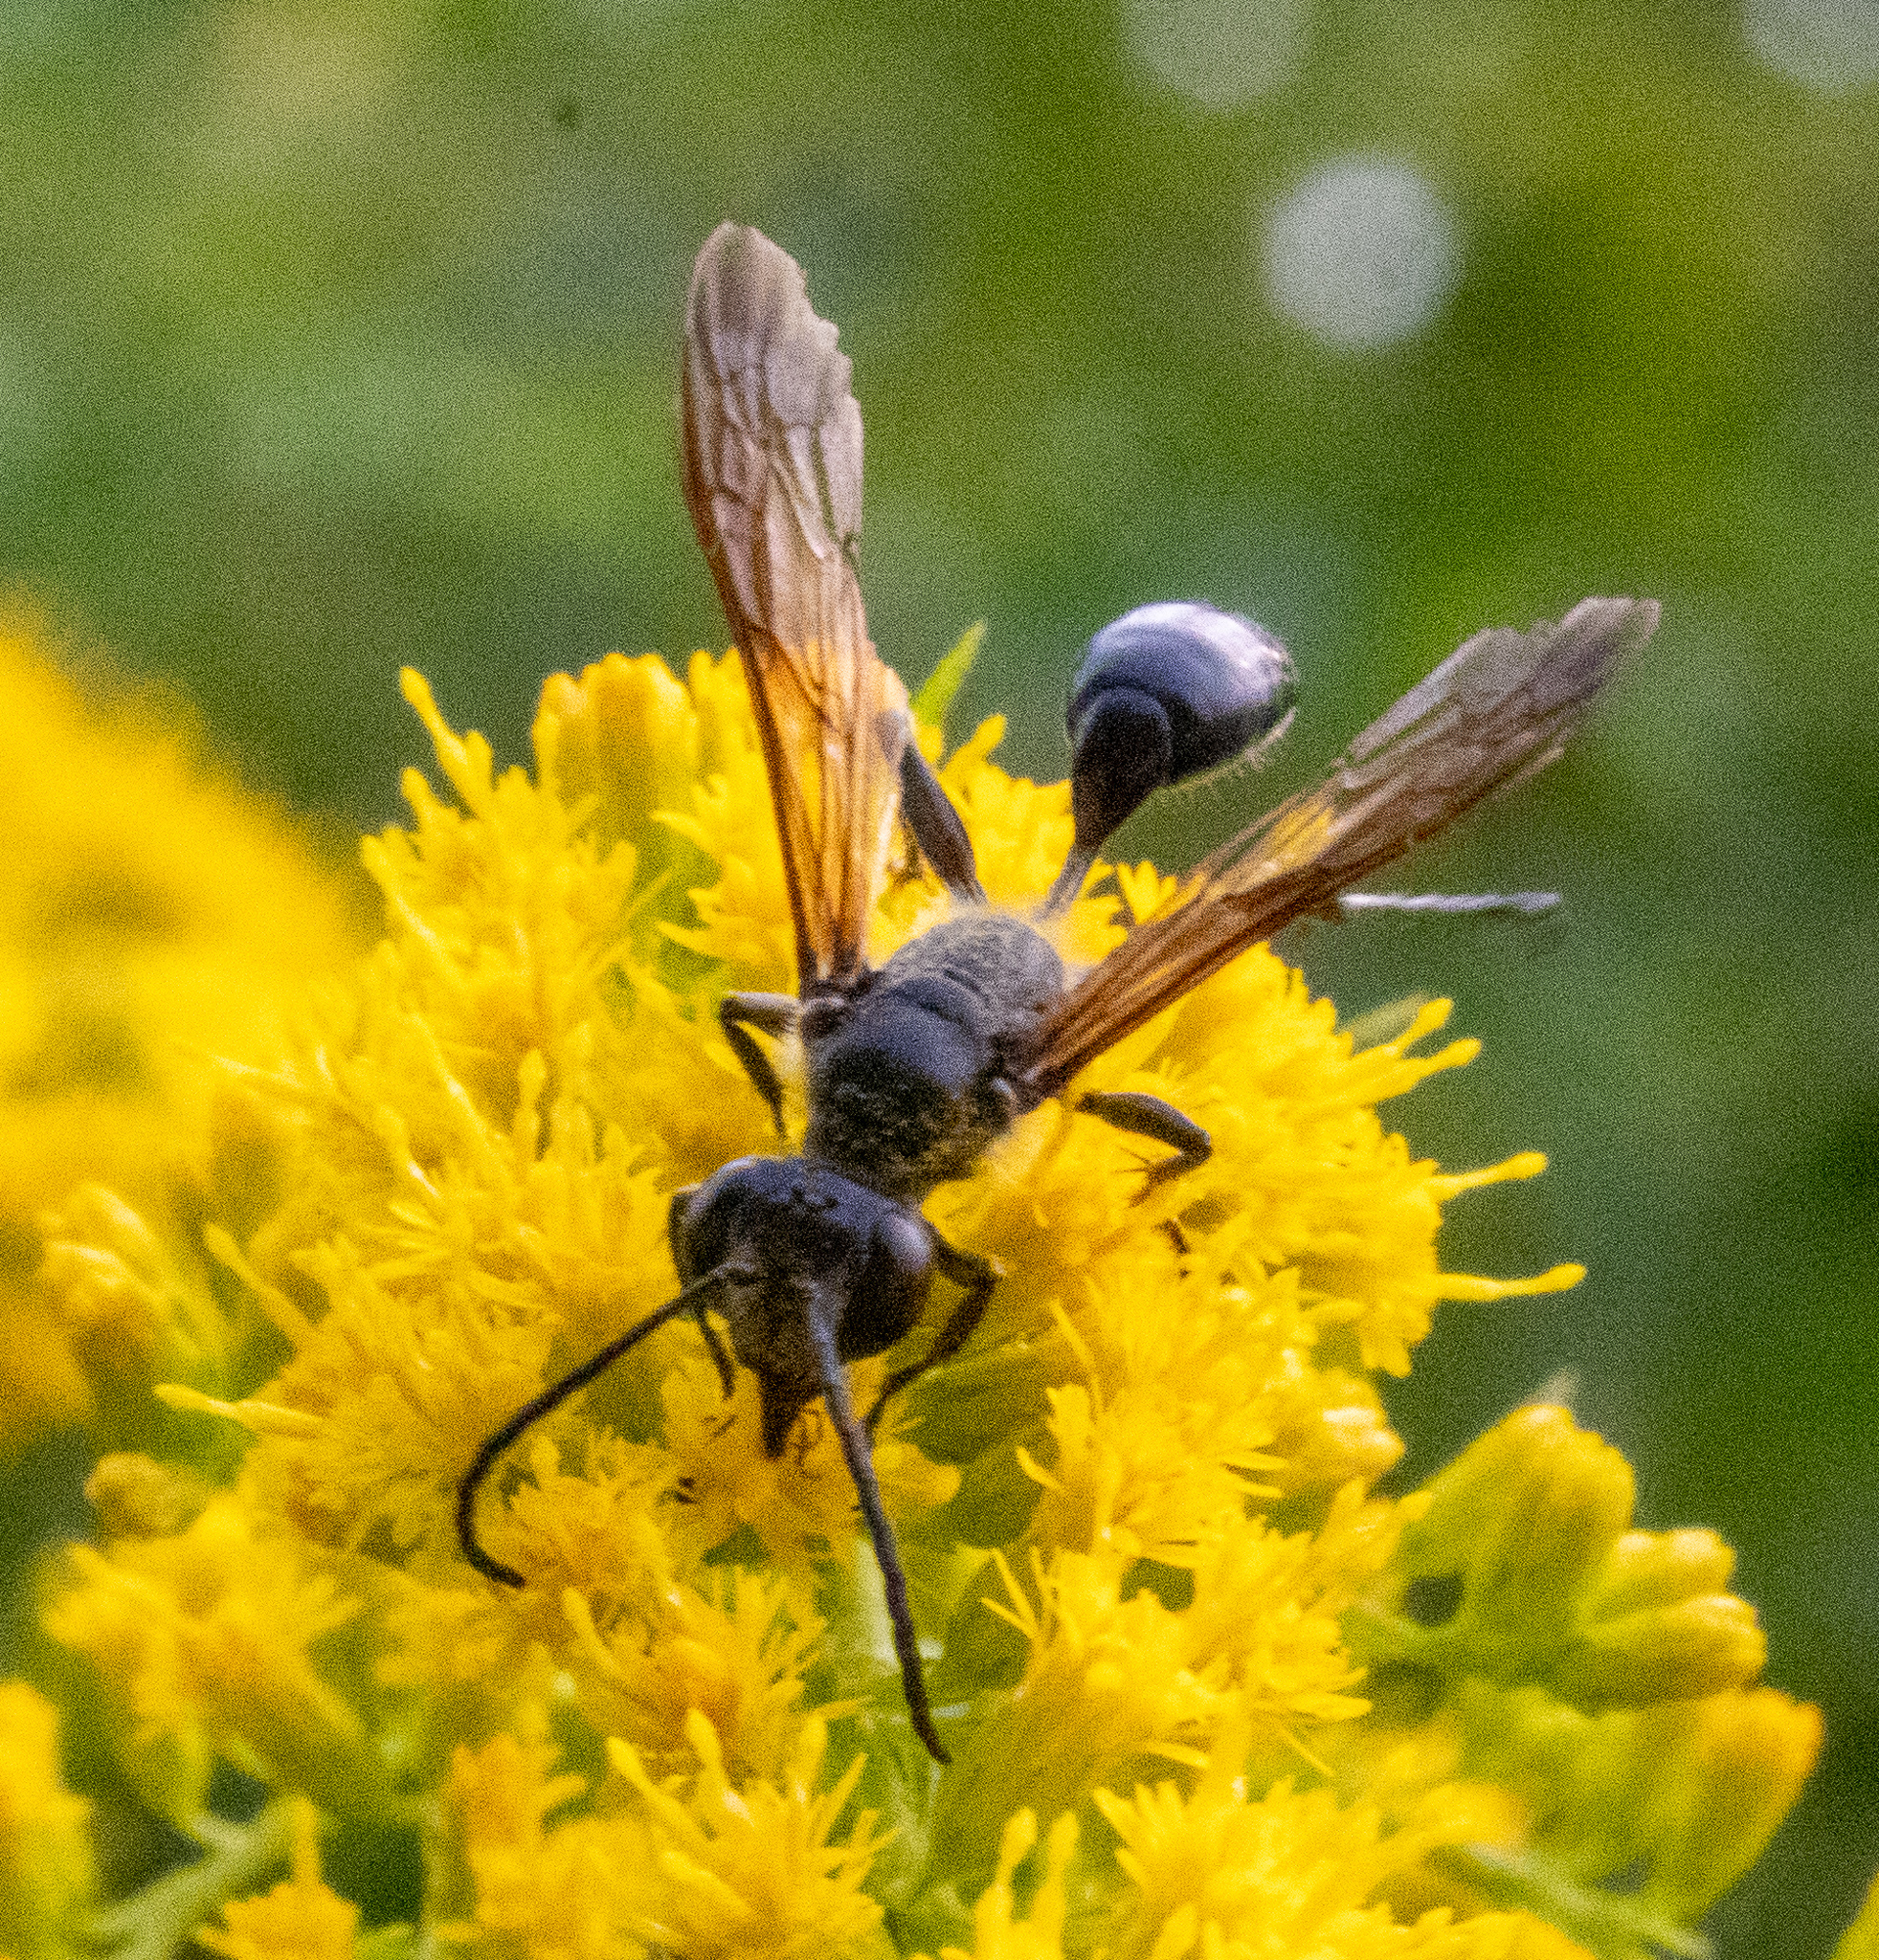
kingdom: Animalia
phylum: Arthropoda
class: Insecta
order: Hymenoptera
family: Sphecidae
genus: Isodontia
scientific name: Isodontia mexicana
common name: Mud dauber
